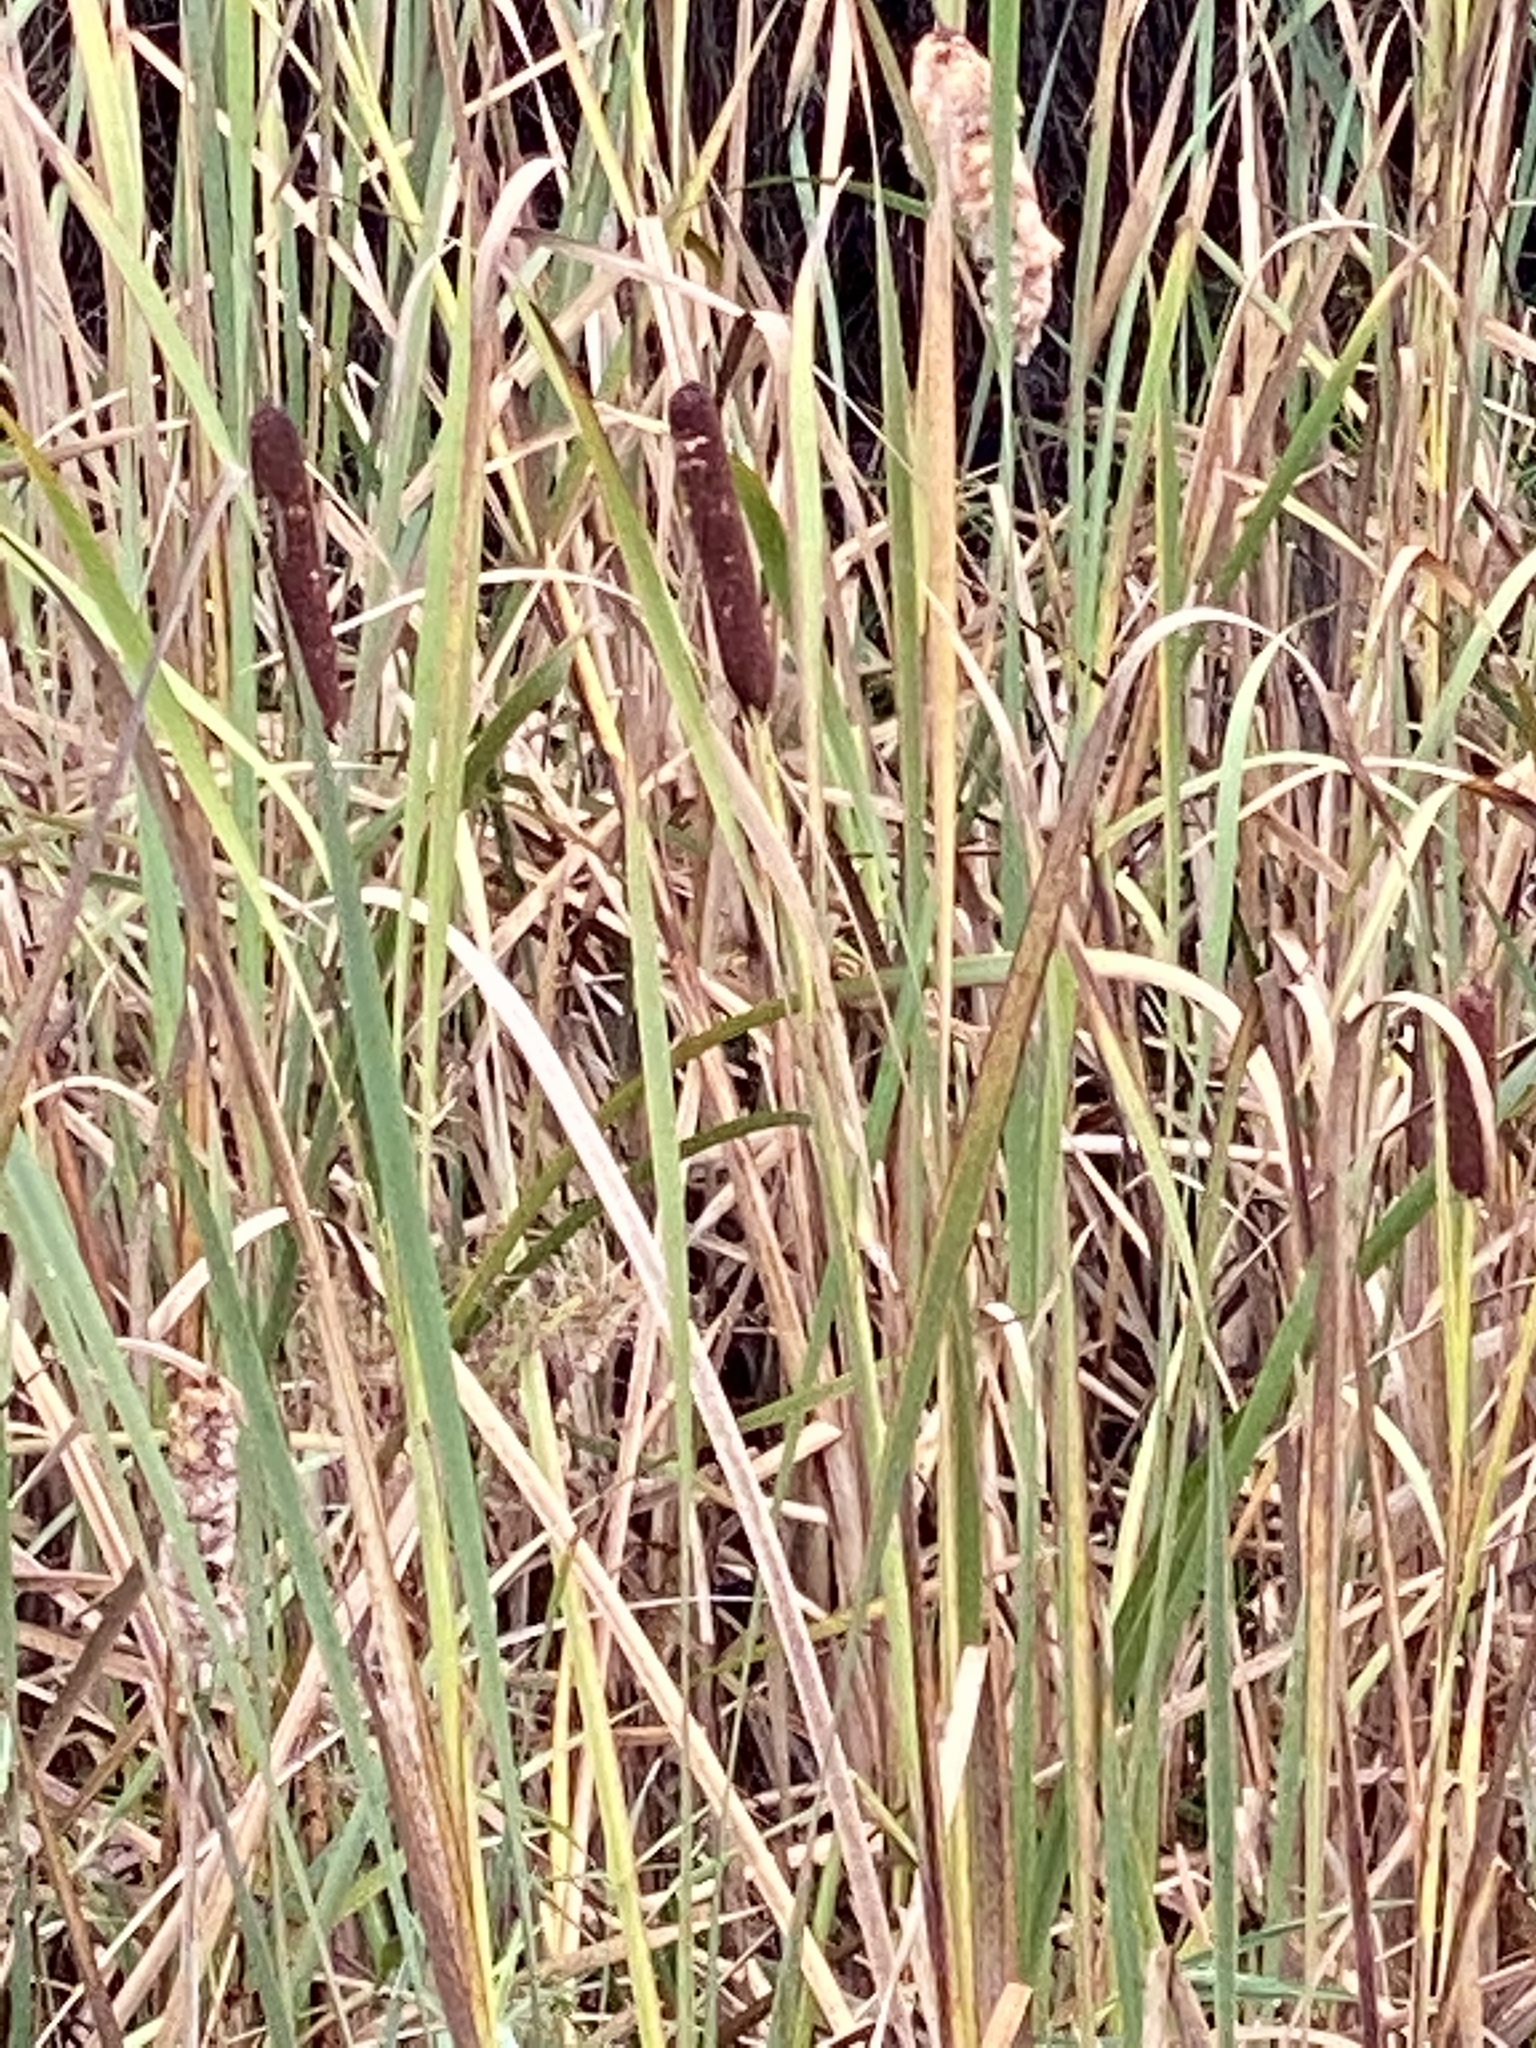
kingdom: Plantae
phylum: Tracheophyta
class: Liliopsida
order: Poales
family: Typhaceae
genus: Typha
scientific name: Typha latifolia
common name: Broadleaf cattail
